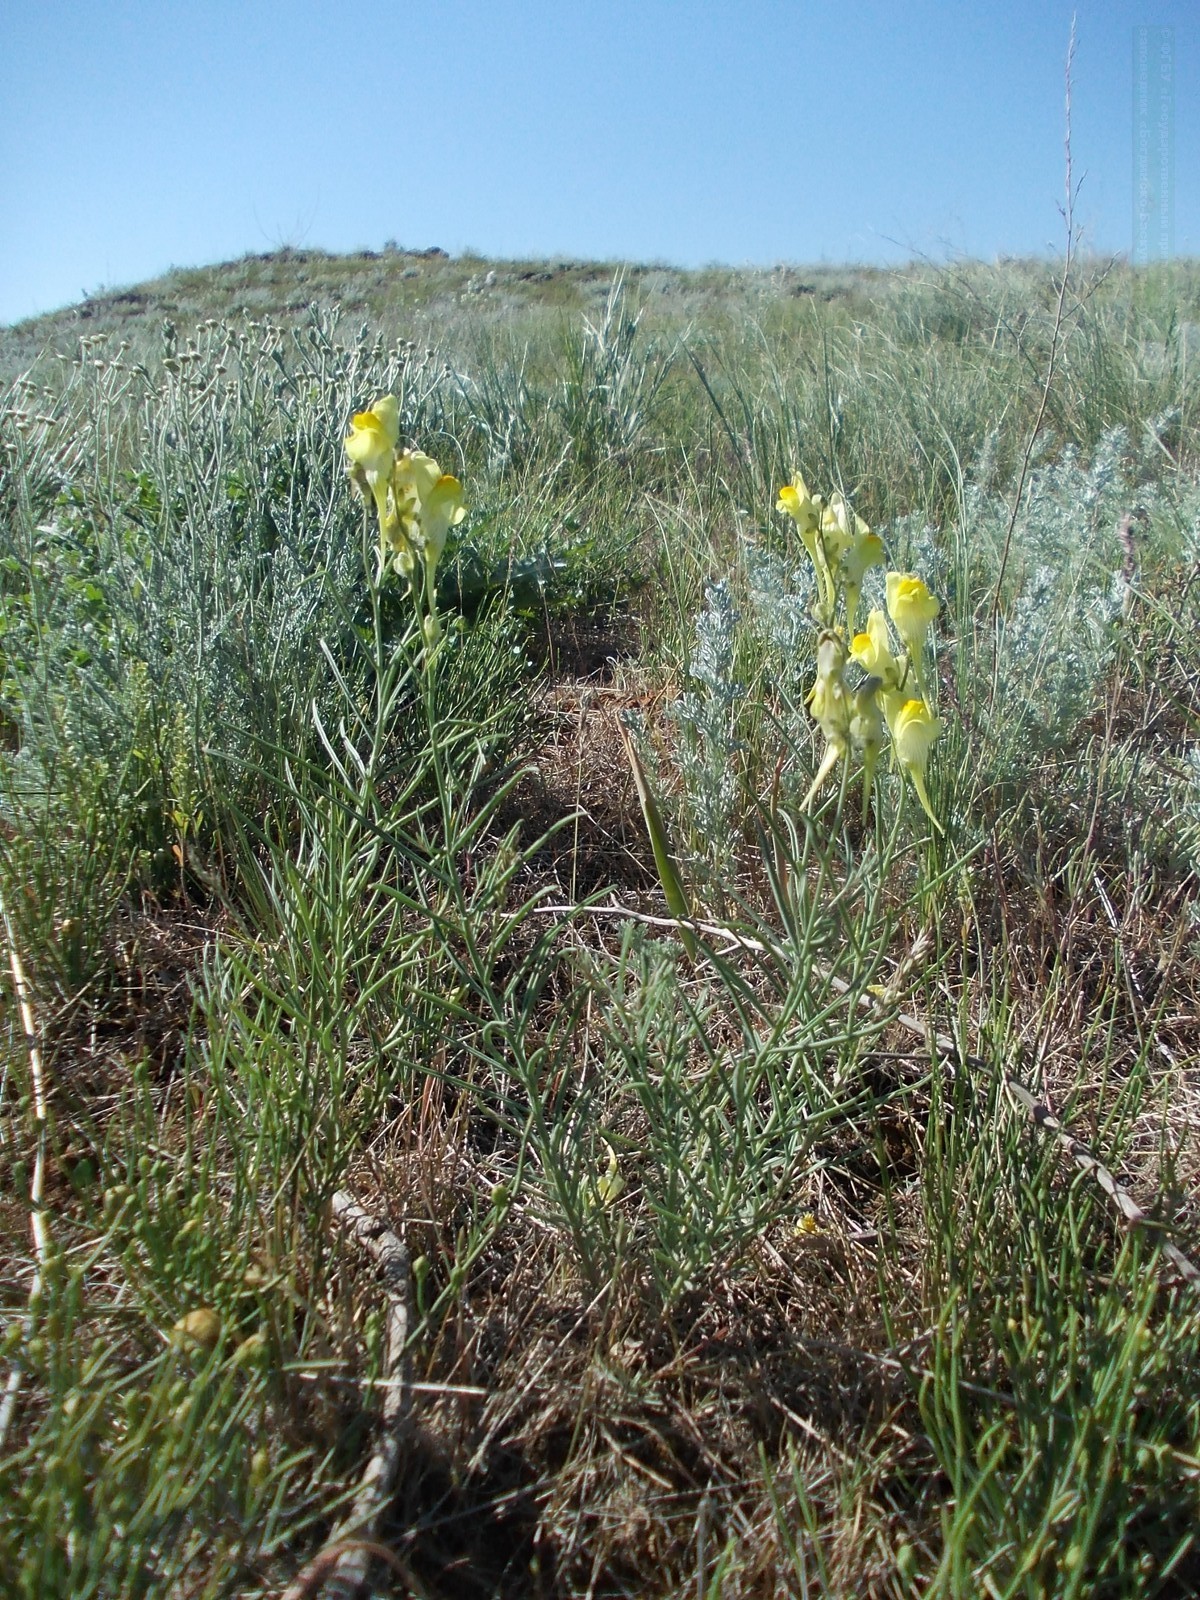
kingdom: Plantae
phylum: Tracheophyta
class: Magnoliopsida
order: Lamiales
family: Plantaginaceae
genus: Linaria
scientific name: Linaria incompleta
